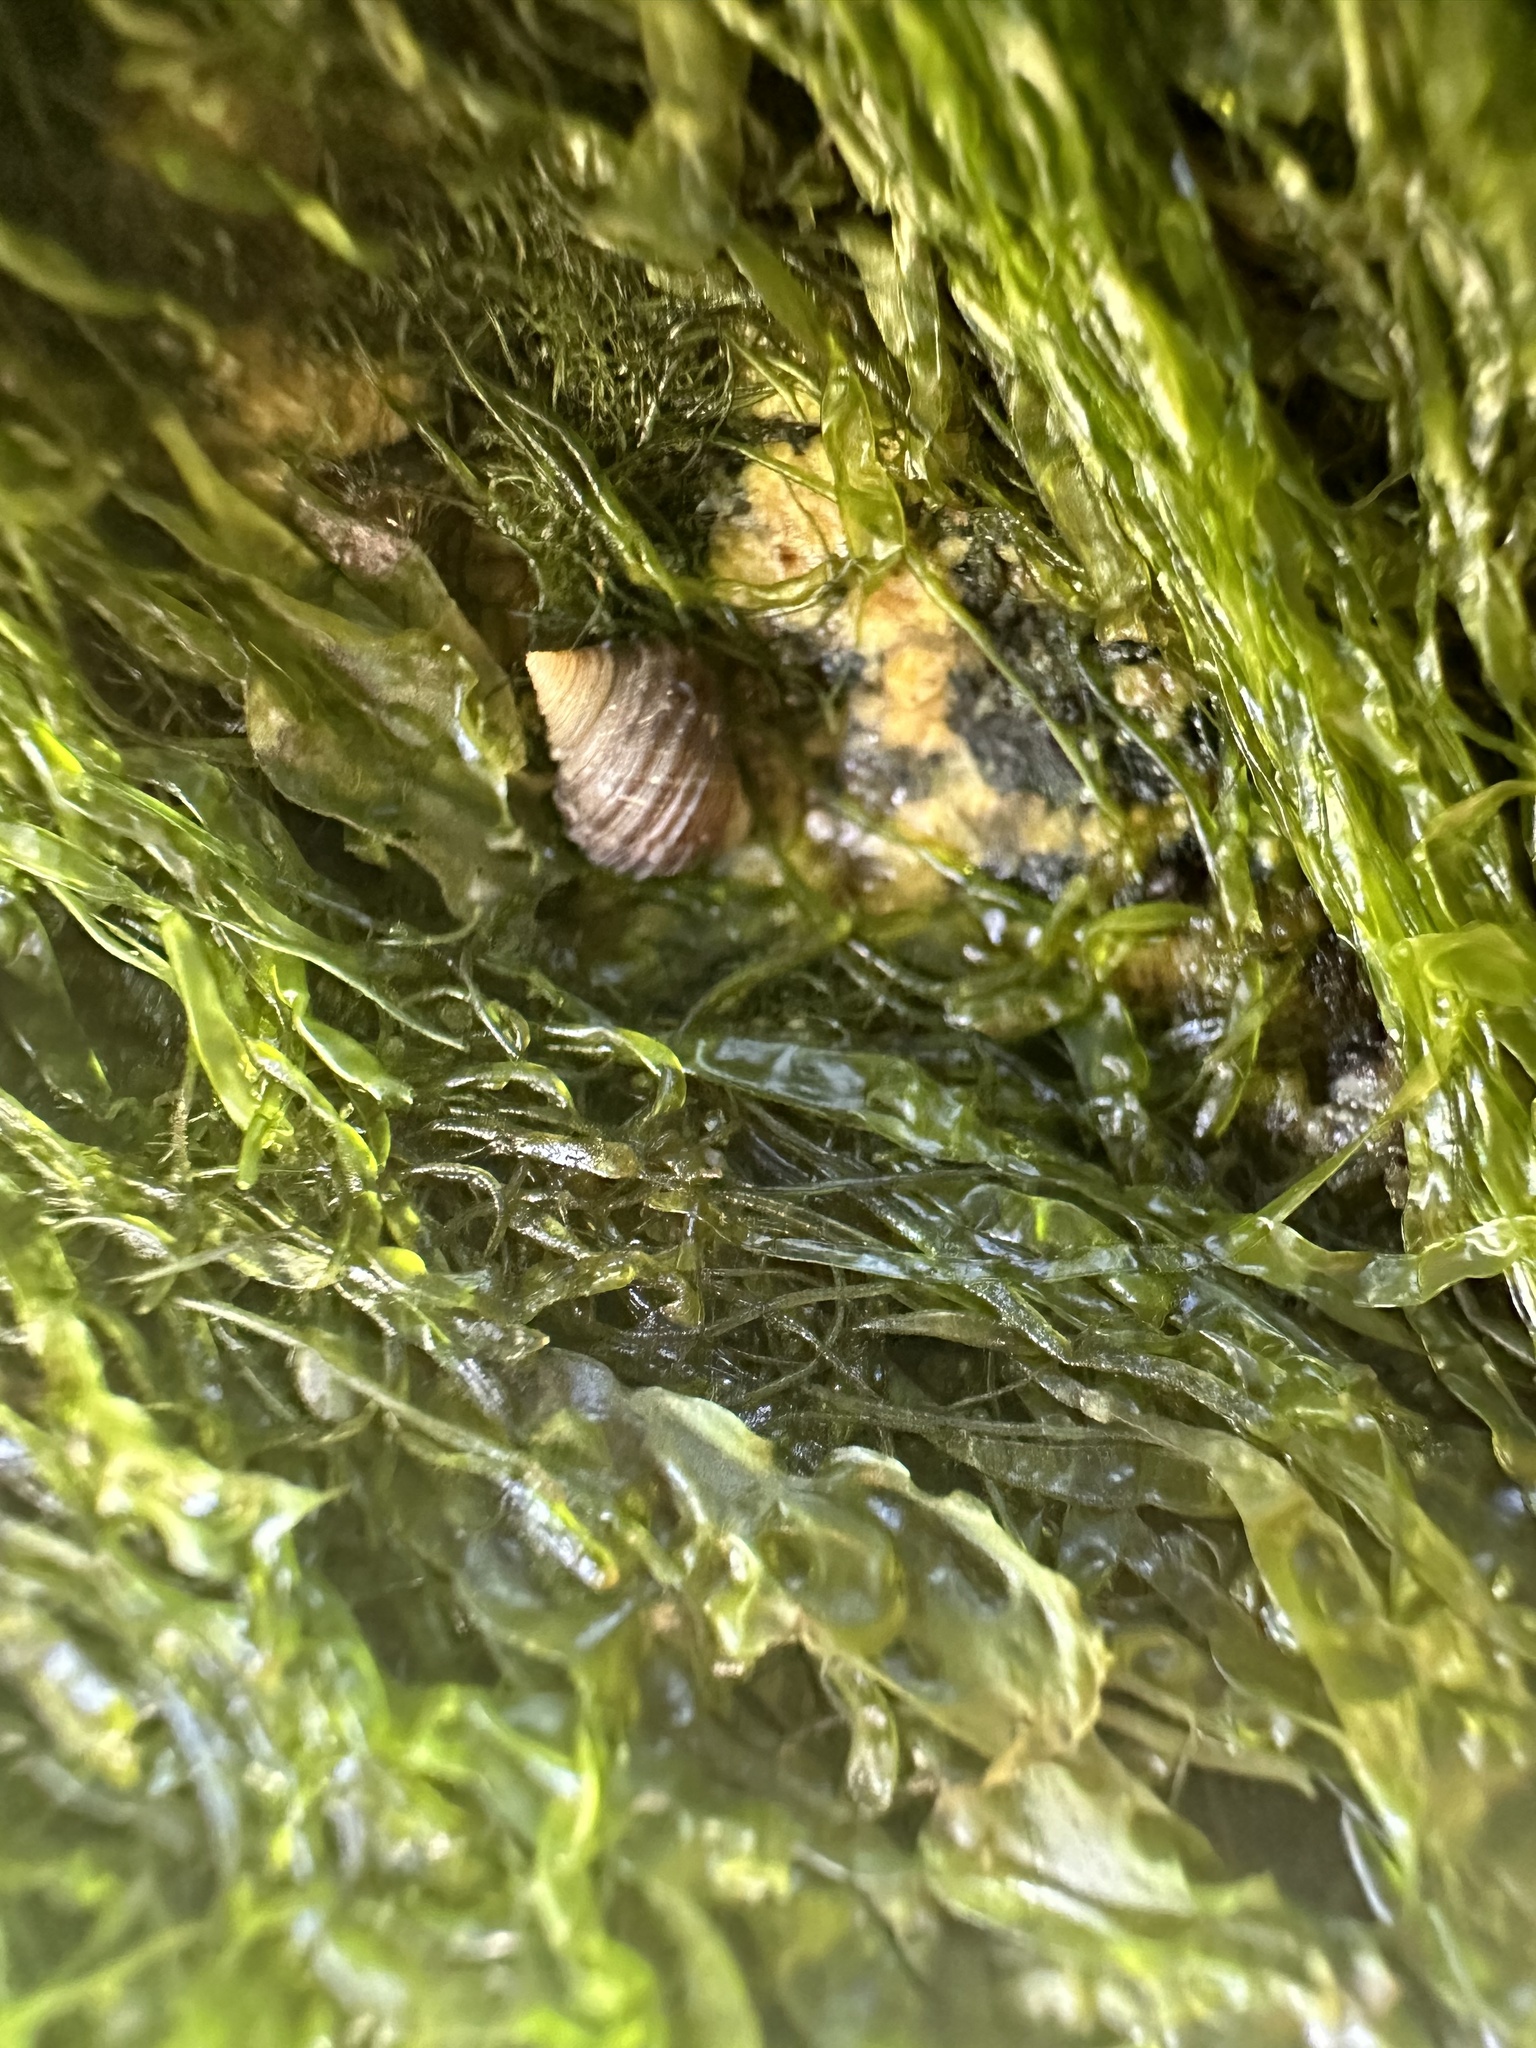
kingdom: Animalia
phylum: Mollusca
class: Gastropoda
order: Littorinimorpha
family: Littorinidae
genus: Littorina
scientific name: Littorina littorea
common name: Common periwinkle
